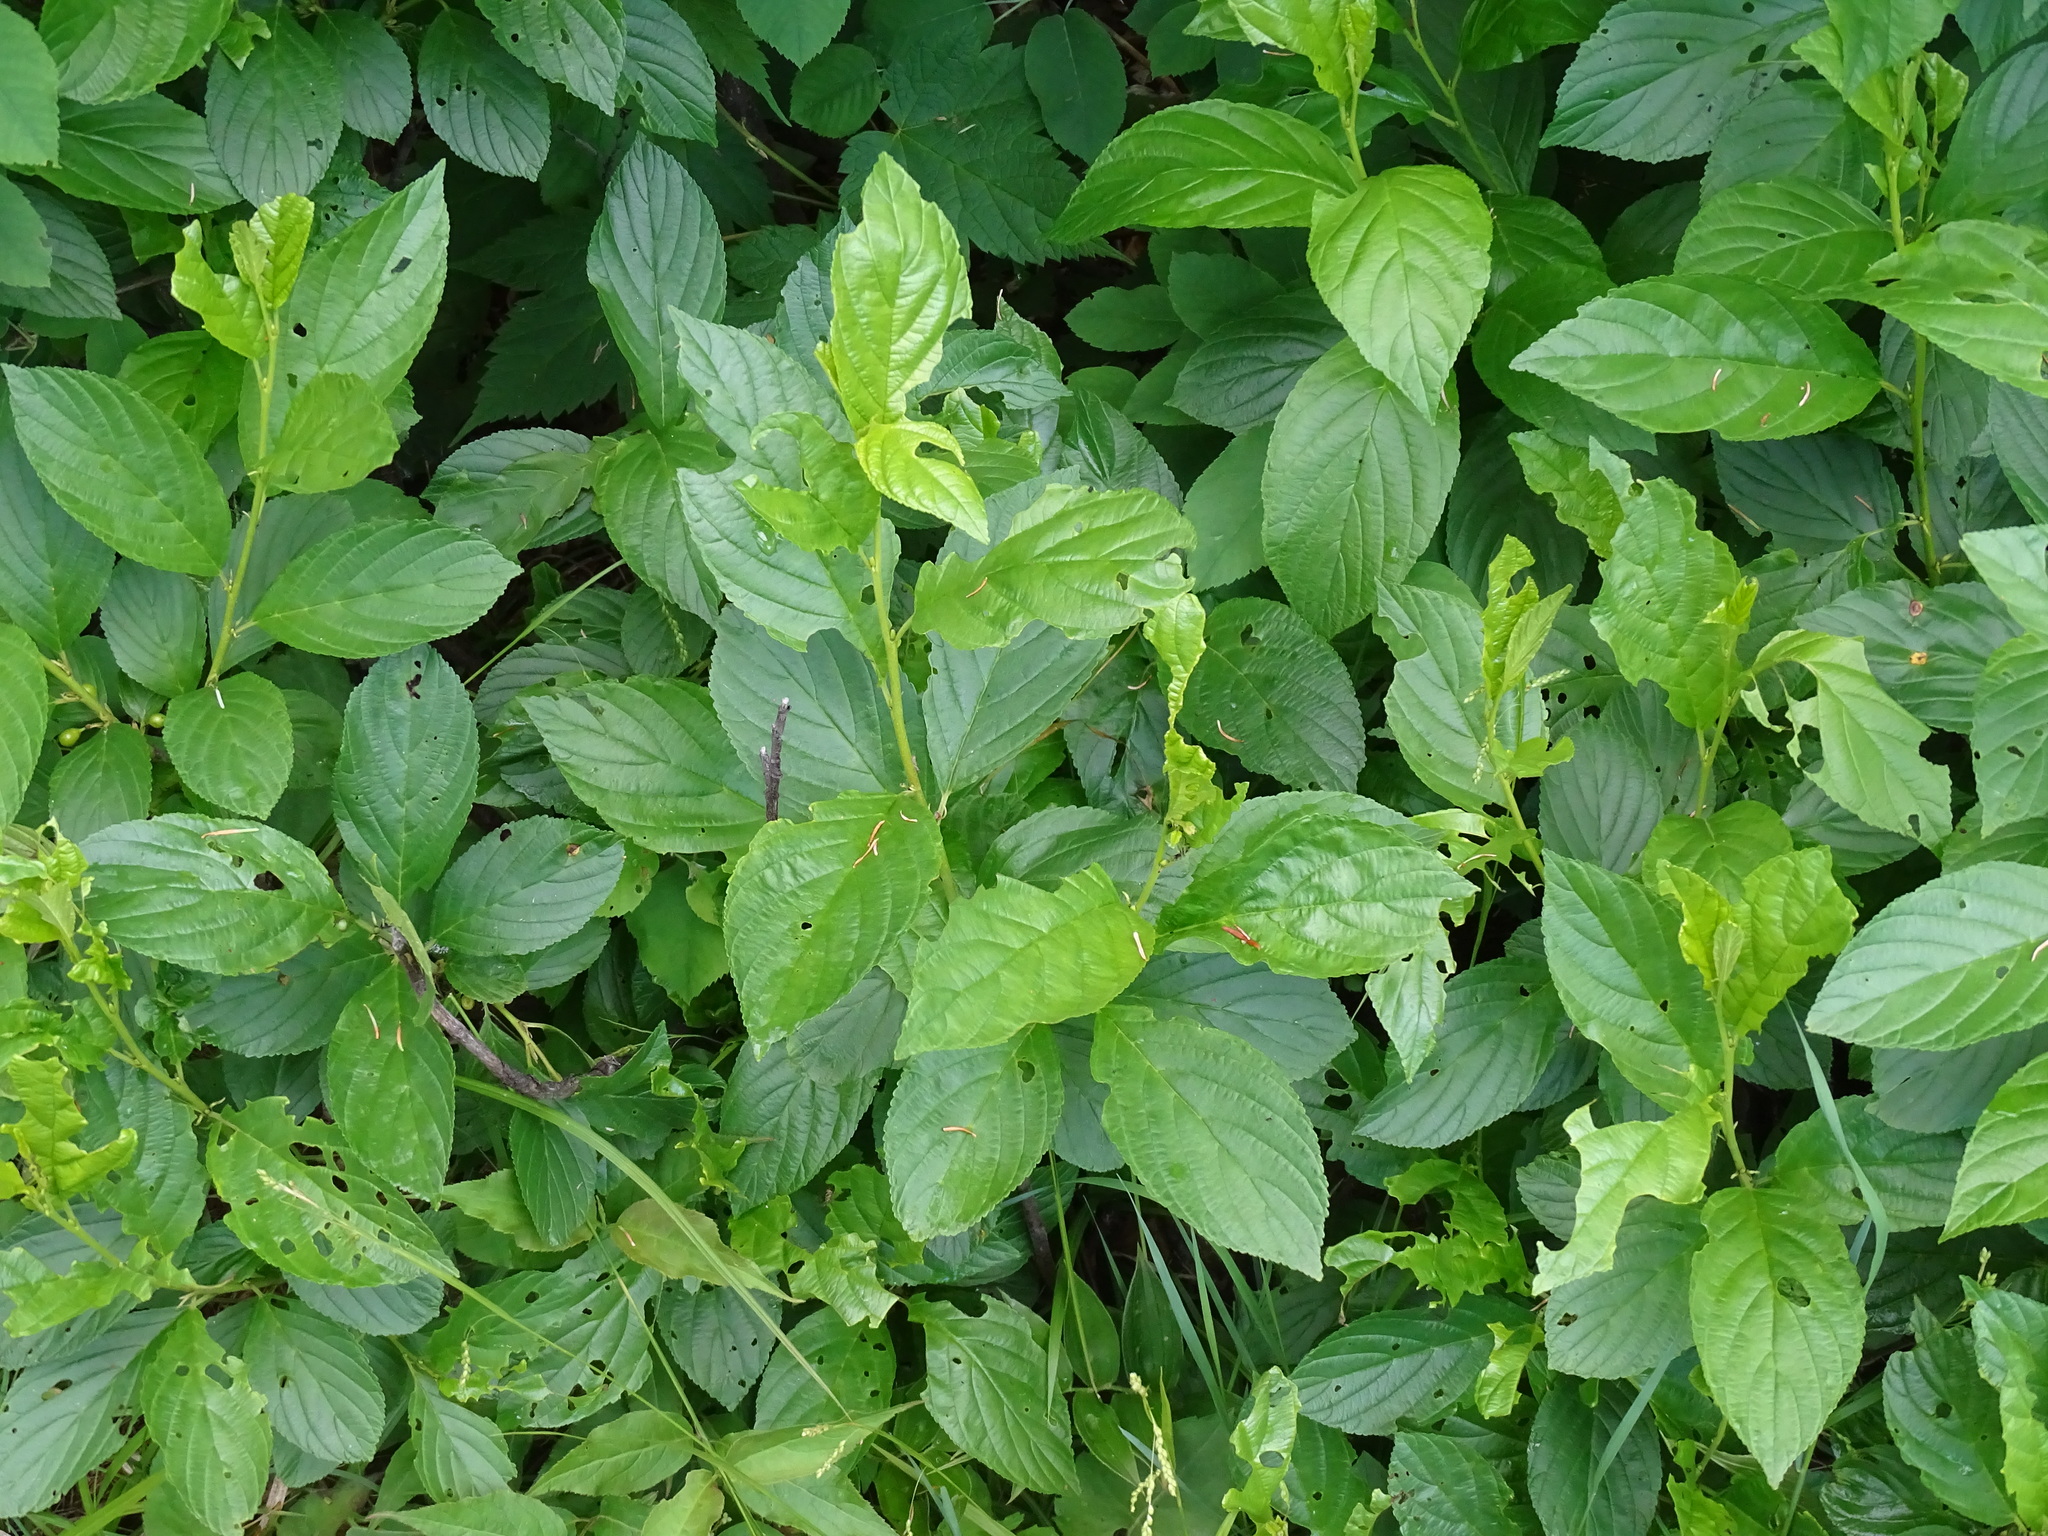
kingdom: Plantae
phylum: Tracheophyta
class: Magnoliopsida
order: Rosales
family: Rhamnaceae
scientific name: Rhamnaceae
